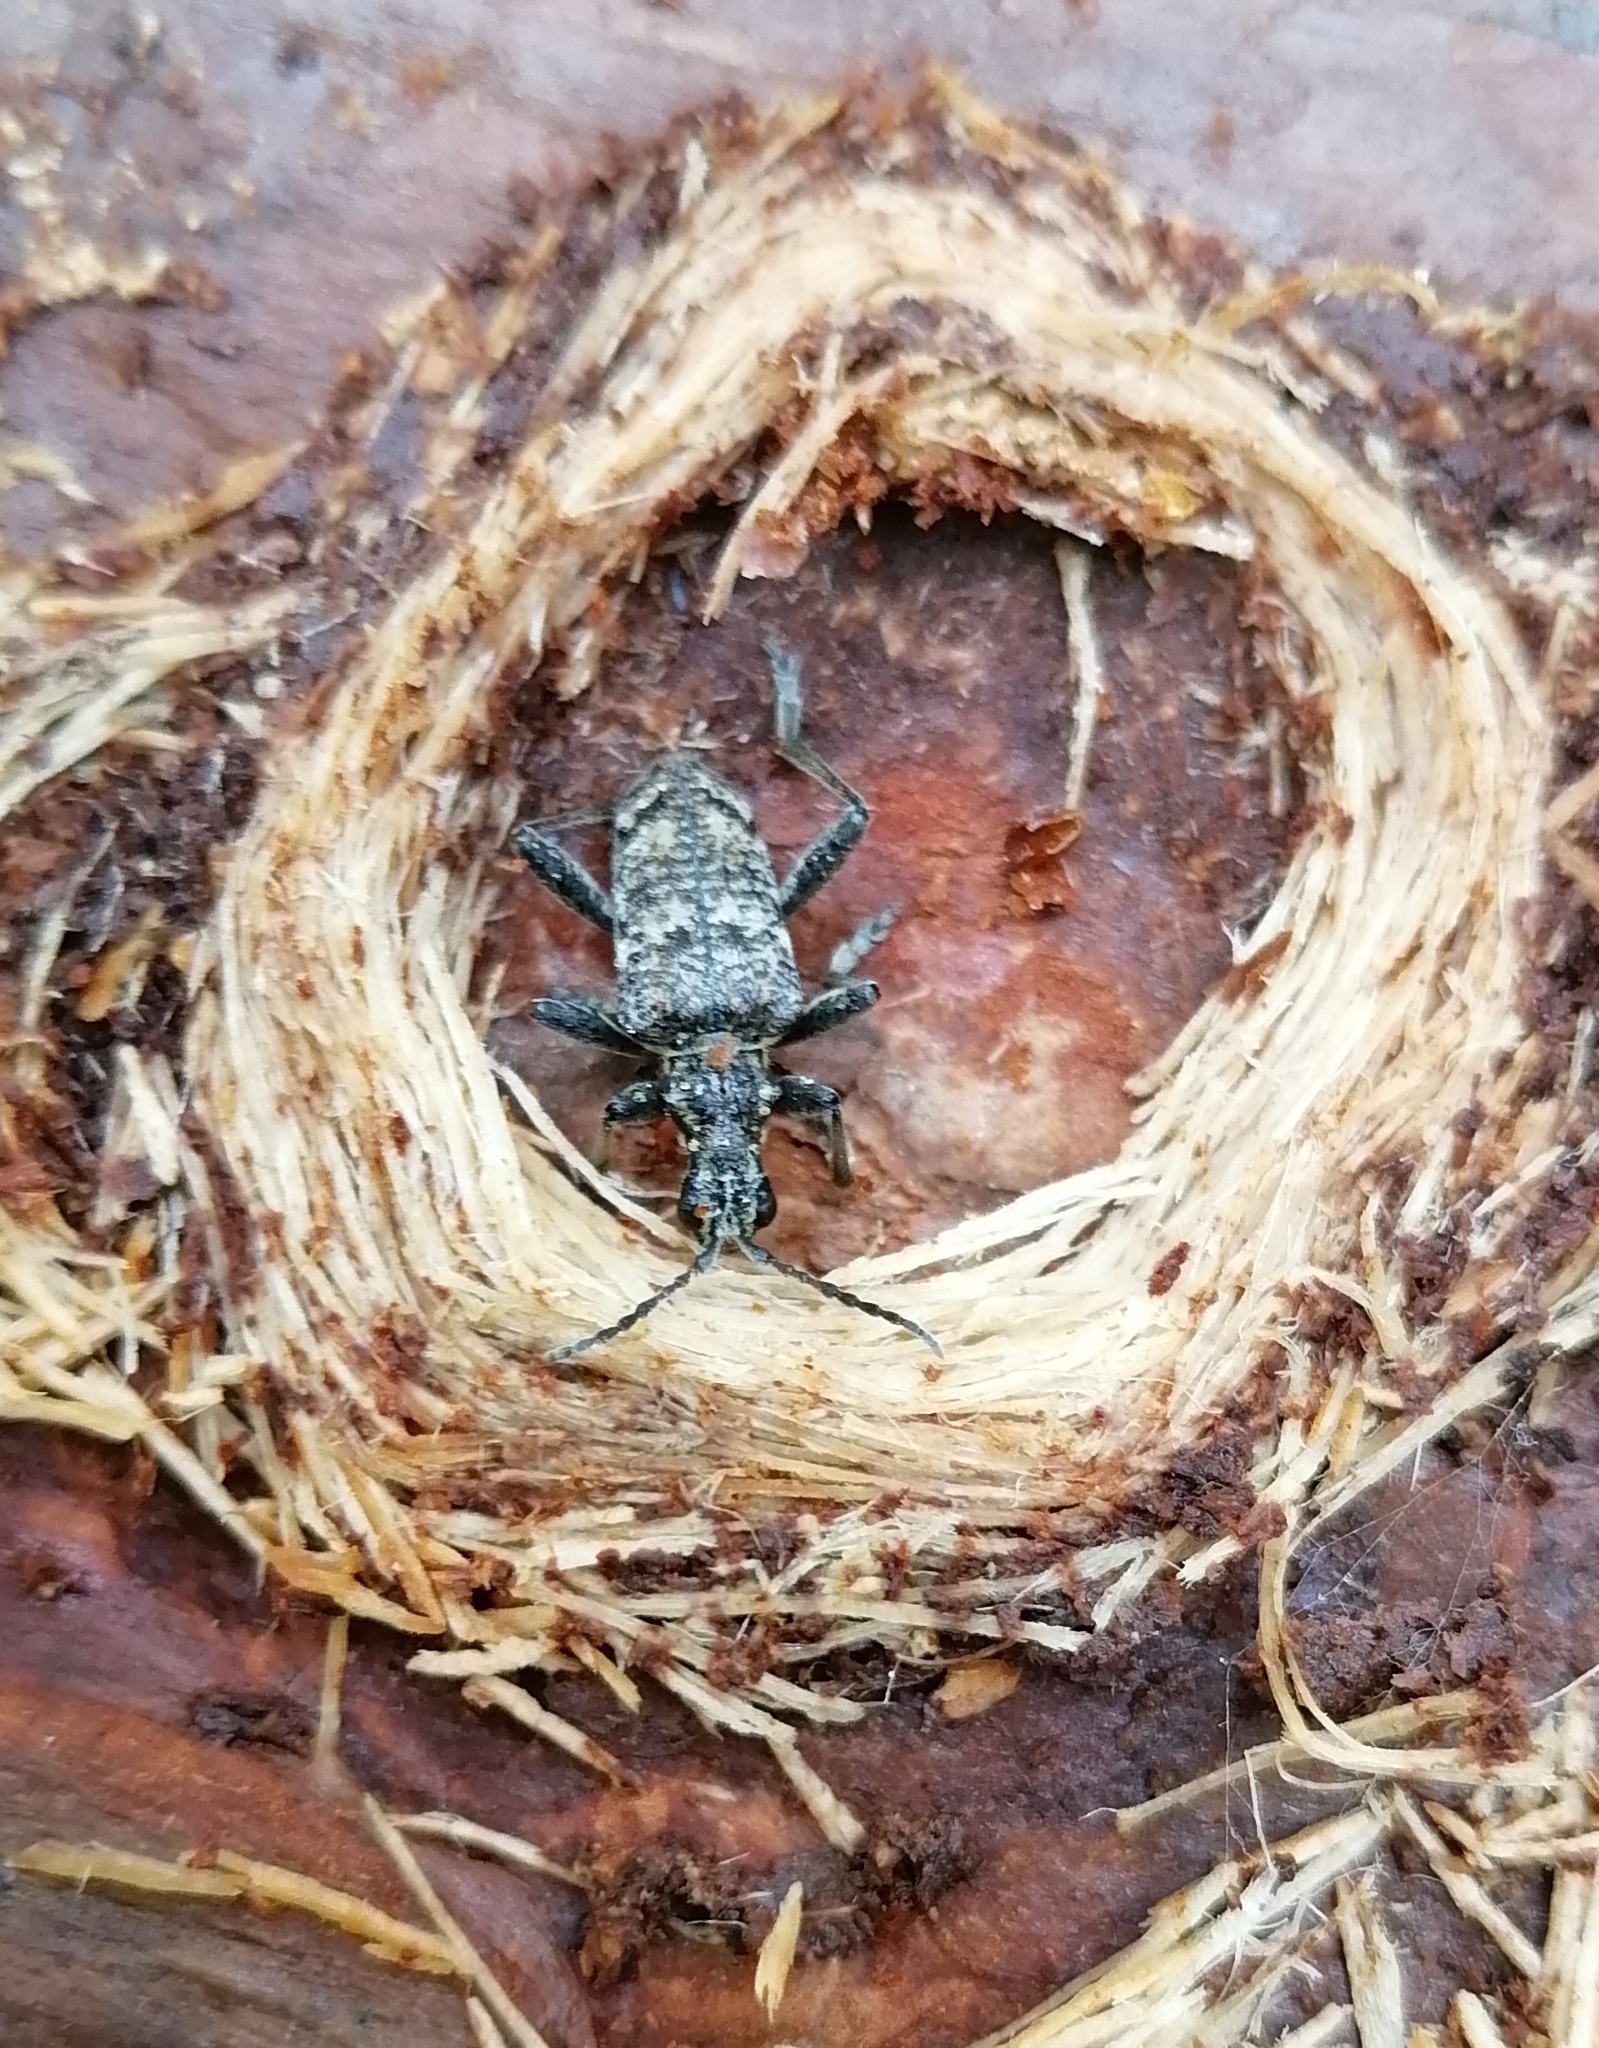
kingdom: Animalia
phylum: Arthropoda
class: Insecta
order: Coleoptera
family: Cerambycidae
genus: Rhagium
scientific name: Rhagium inquisitor
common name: Ribbed pine borer
